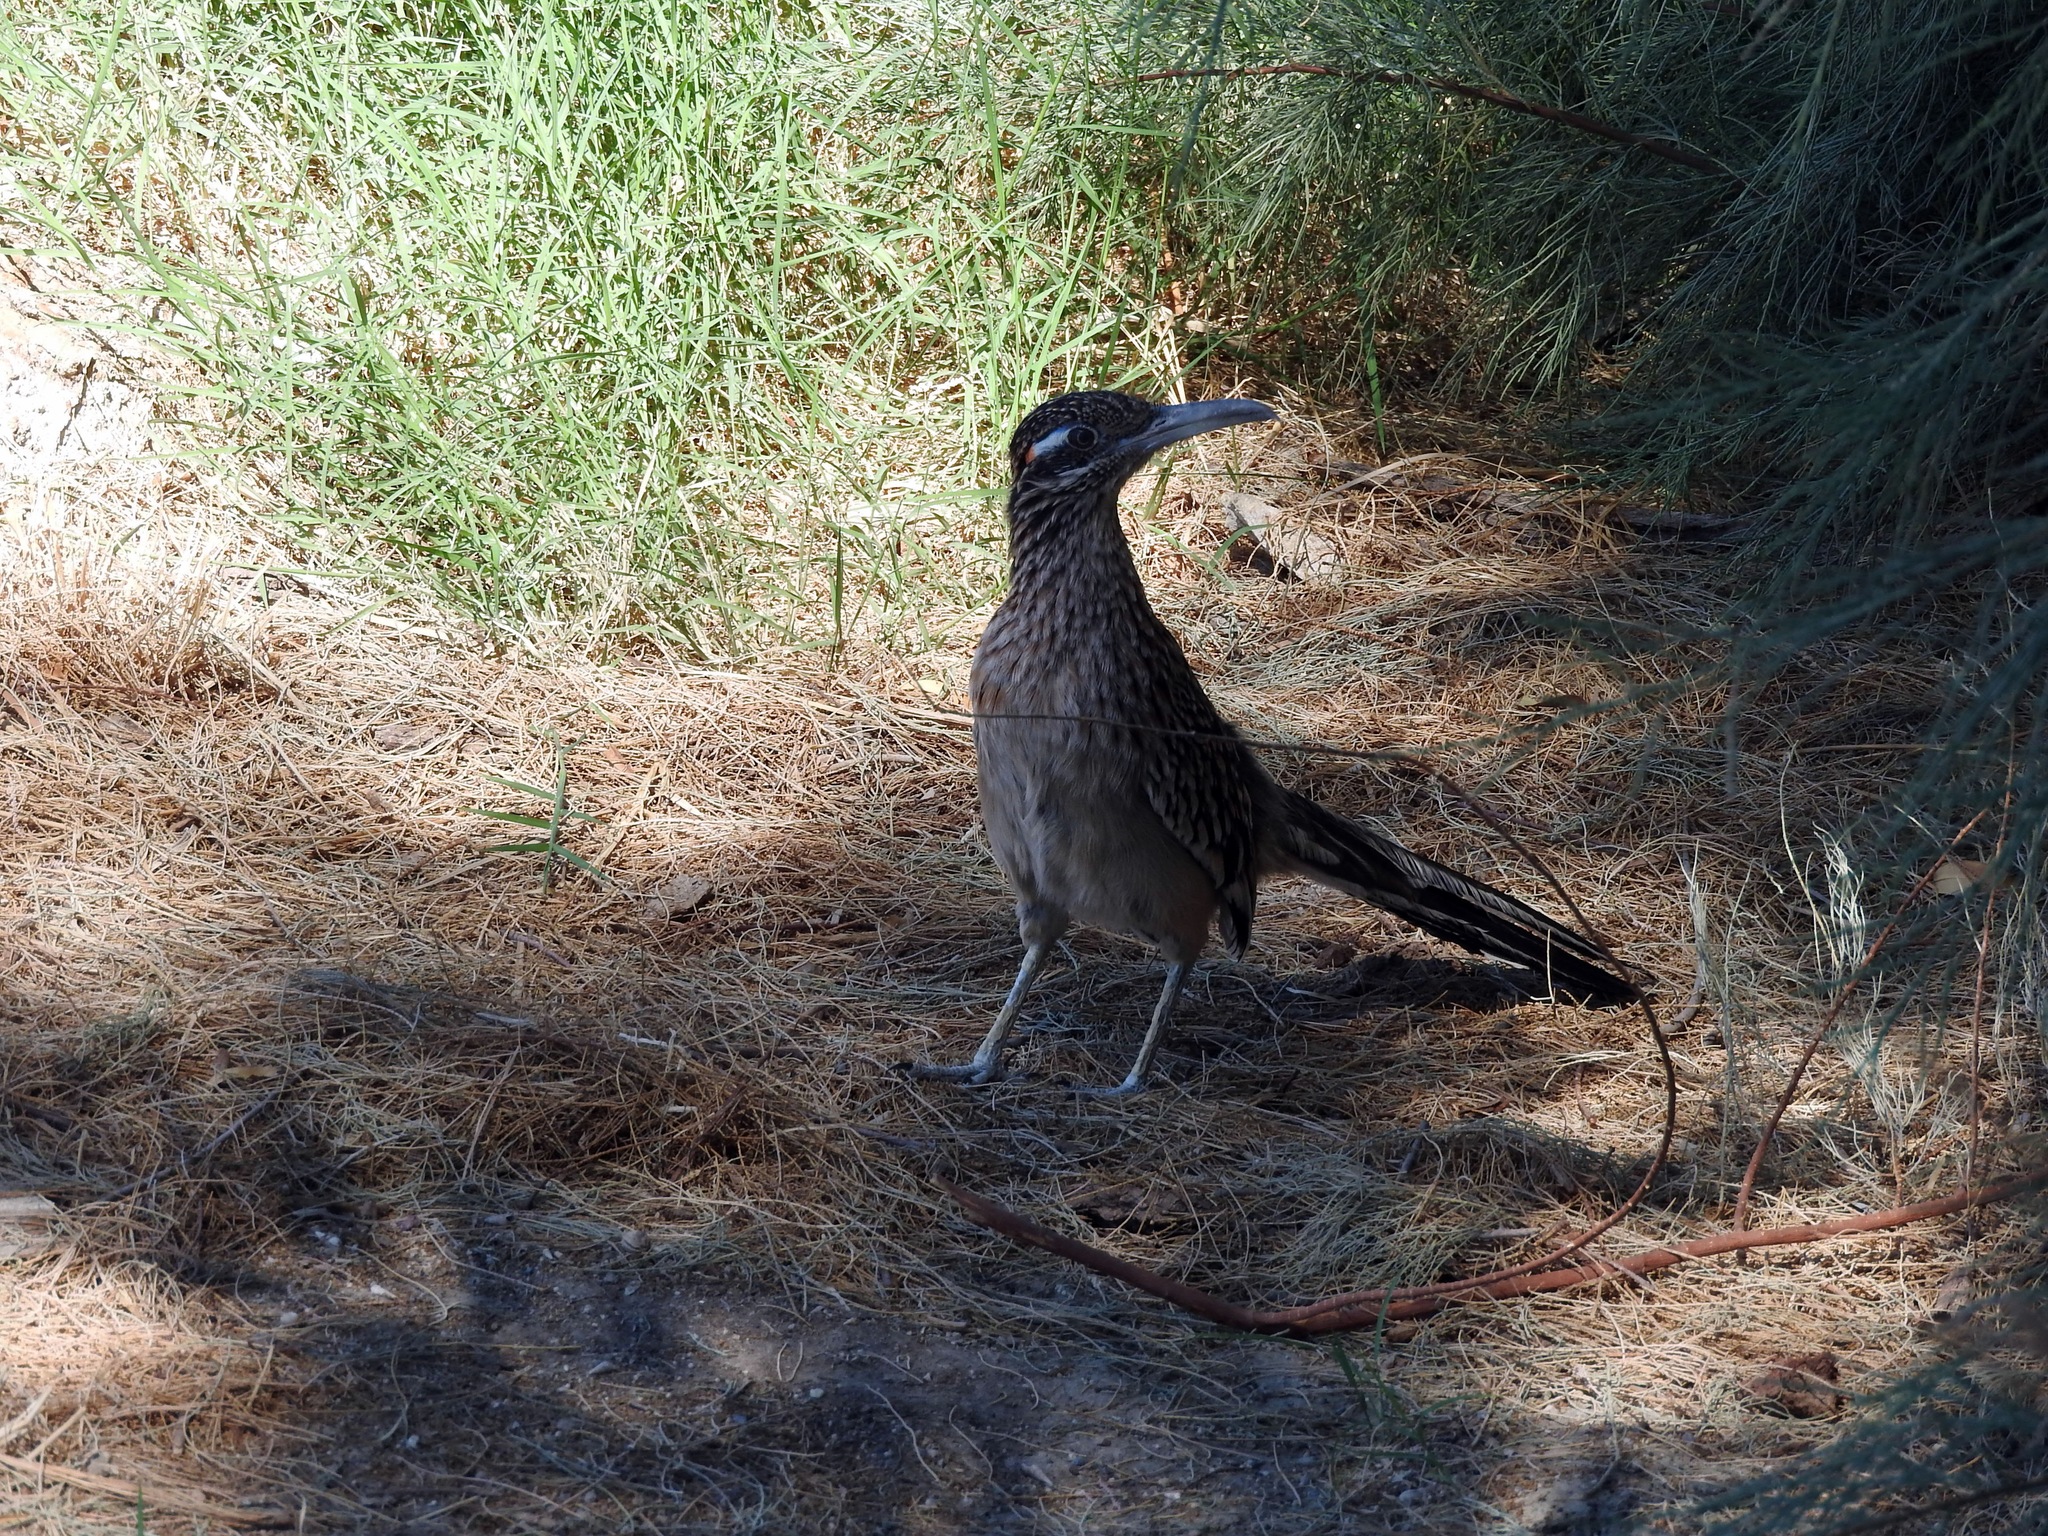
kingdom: Animalia
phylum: Chordata
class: Aves
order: Cuculiformes
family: Cuculidae
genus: Geococcyx
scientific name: Geococcyx californianus
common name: Greater roadrunner
